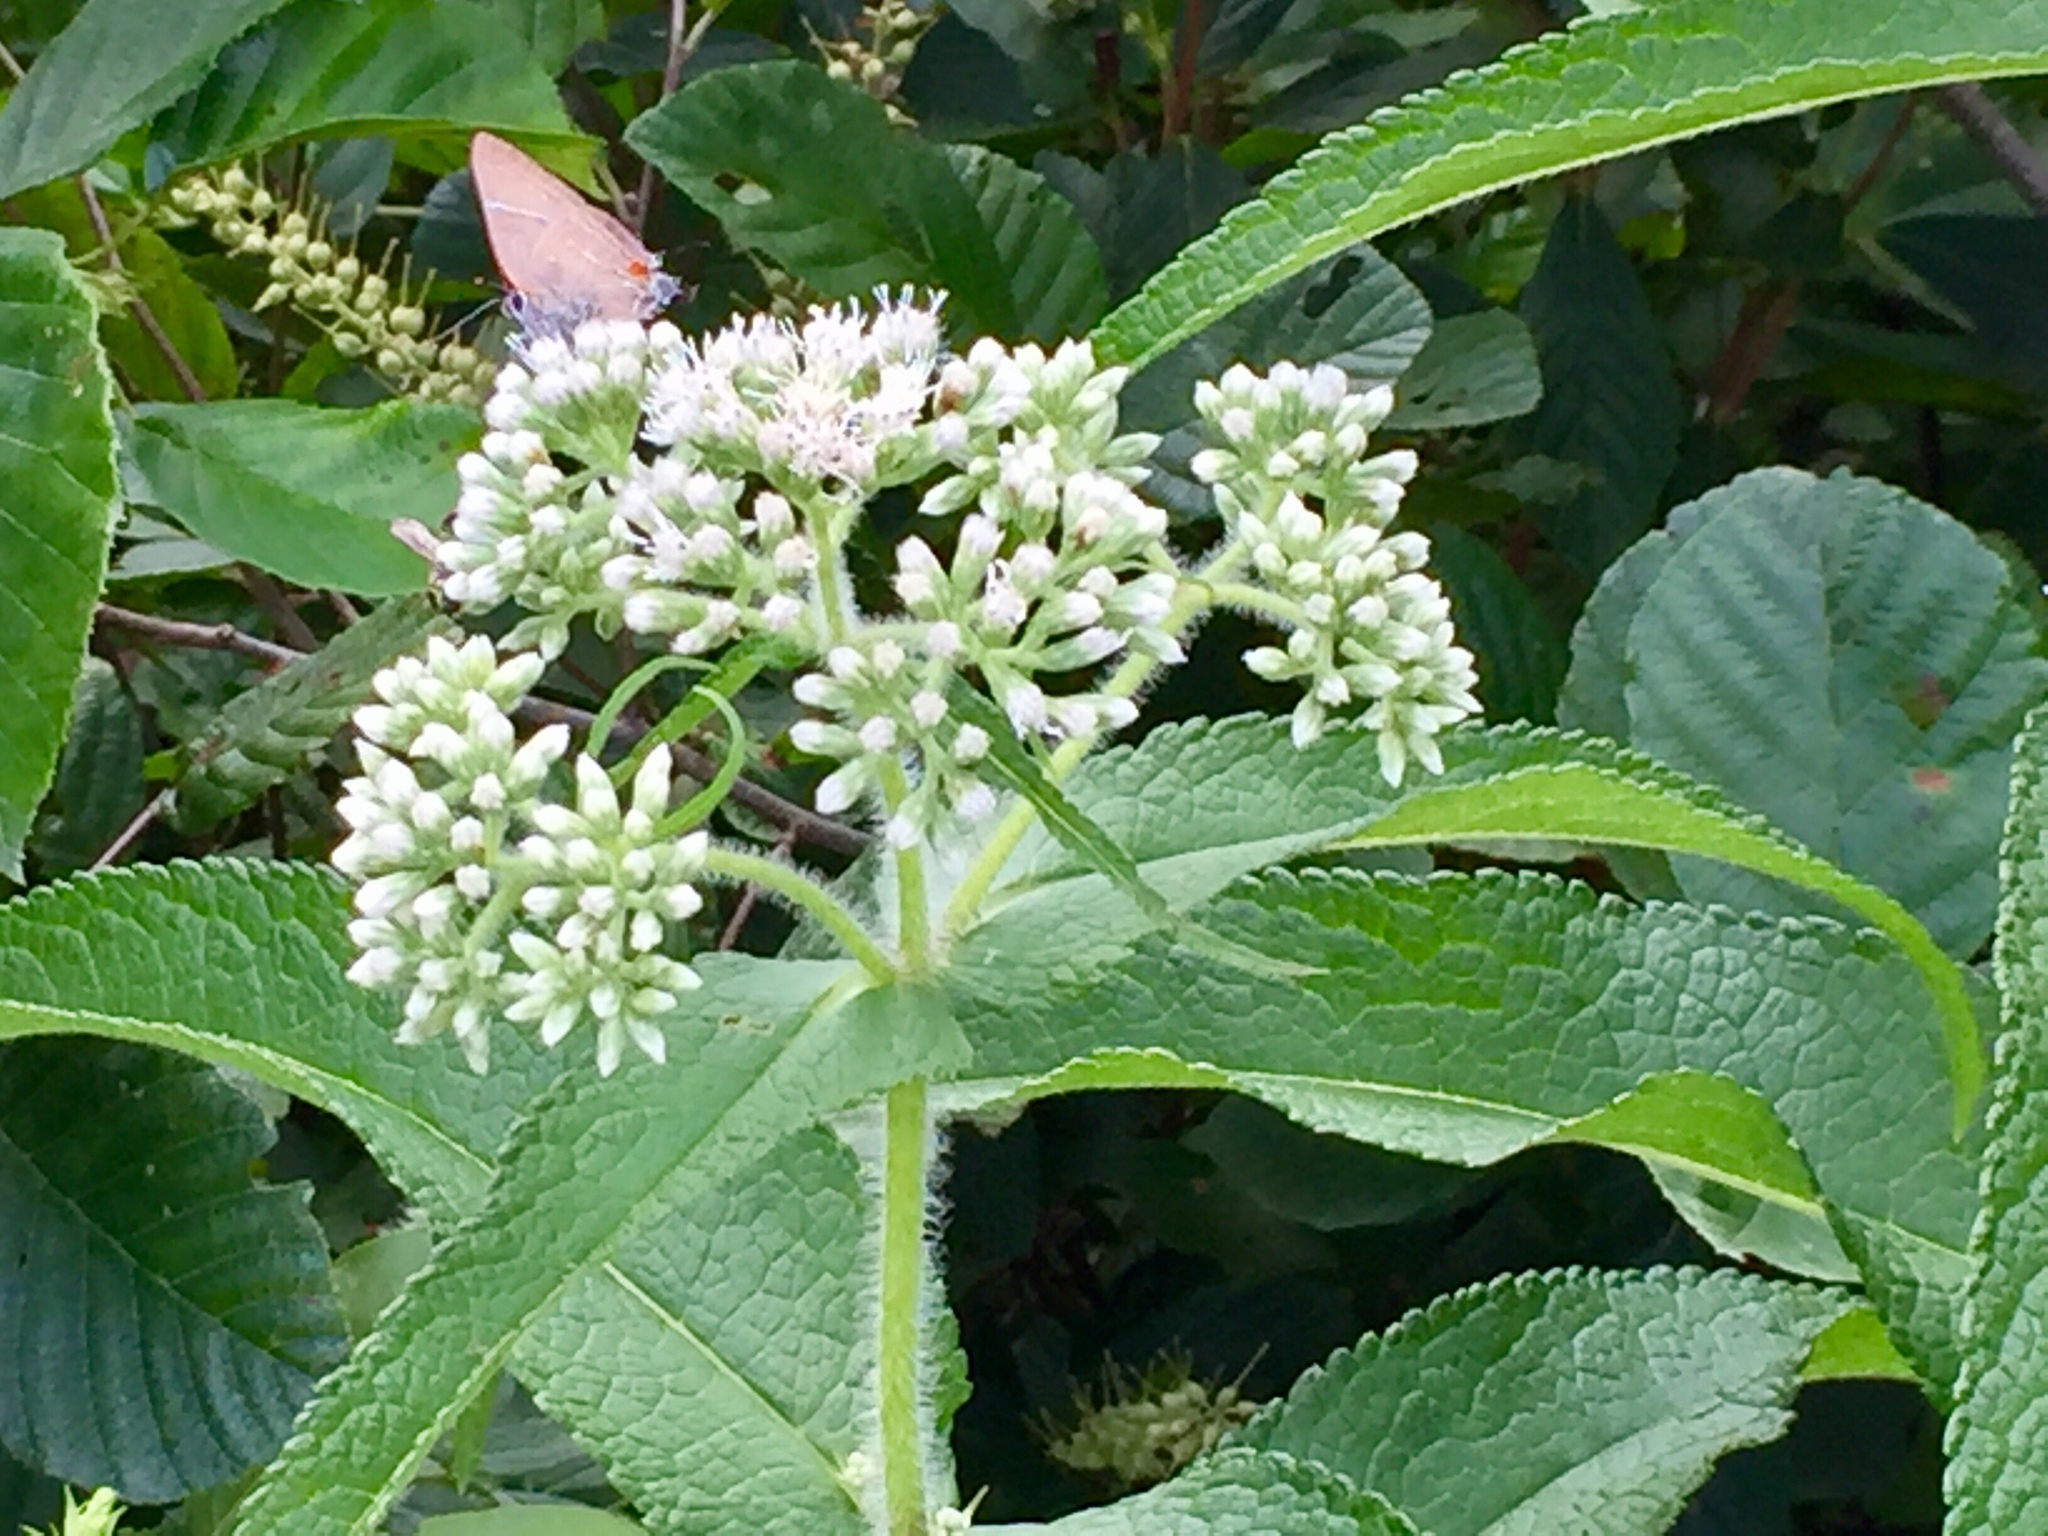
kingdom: Plantae
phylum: Tracheophyta
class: Magnoliopsida
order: Asterales
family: Asteraceae
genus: Eupatorium
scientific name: Eupatorium perfoliatum
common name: Boneset
